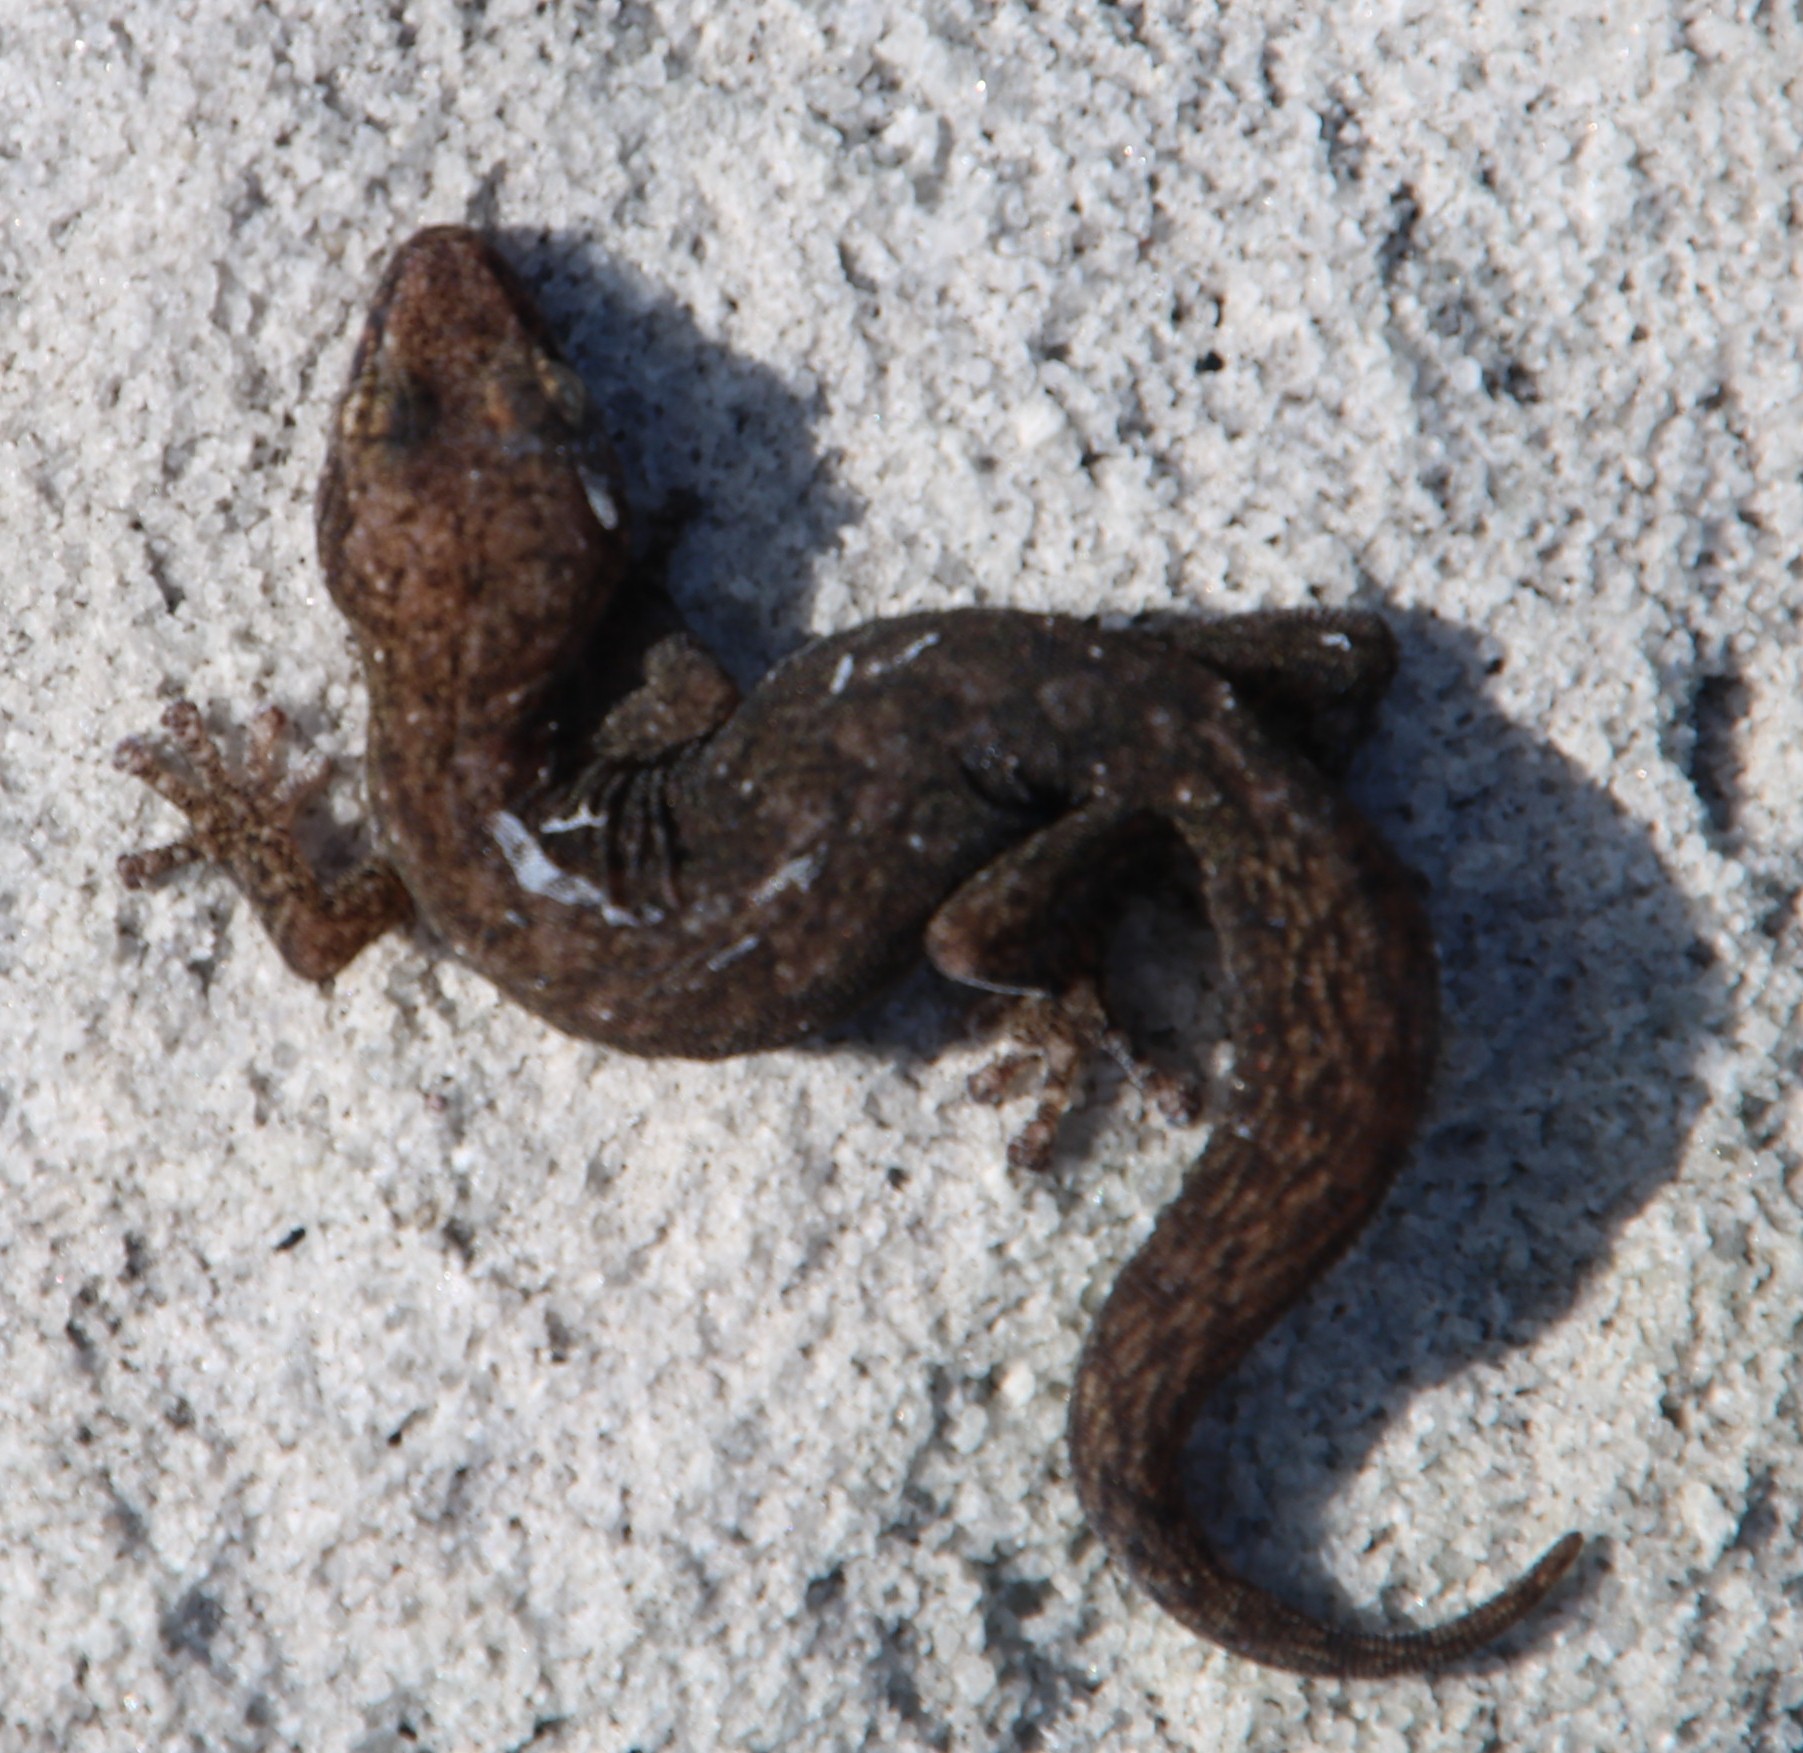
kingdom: Animalia
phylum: Chordata
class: Squamata
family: Gekkonidae
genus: Afrogecko
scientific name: Afrogecko porphyreus
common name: Marbled leaf-toed gecko
